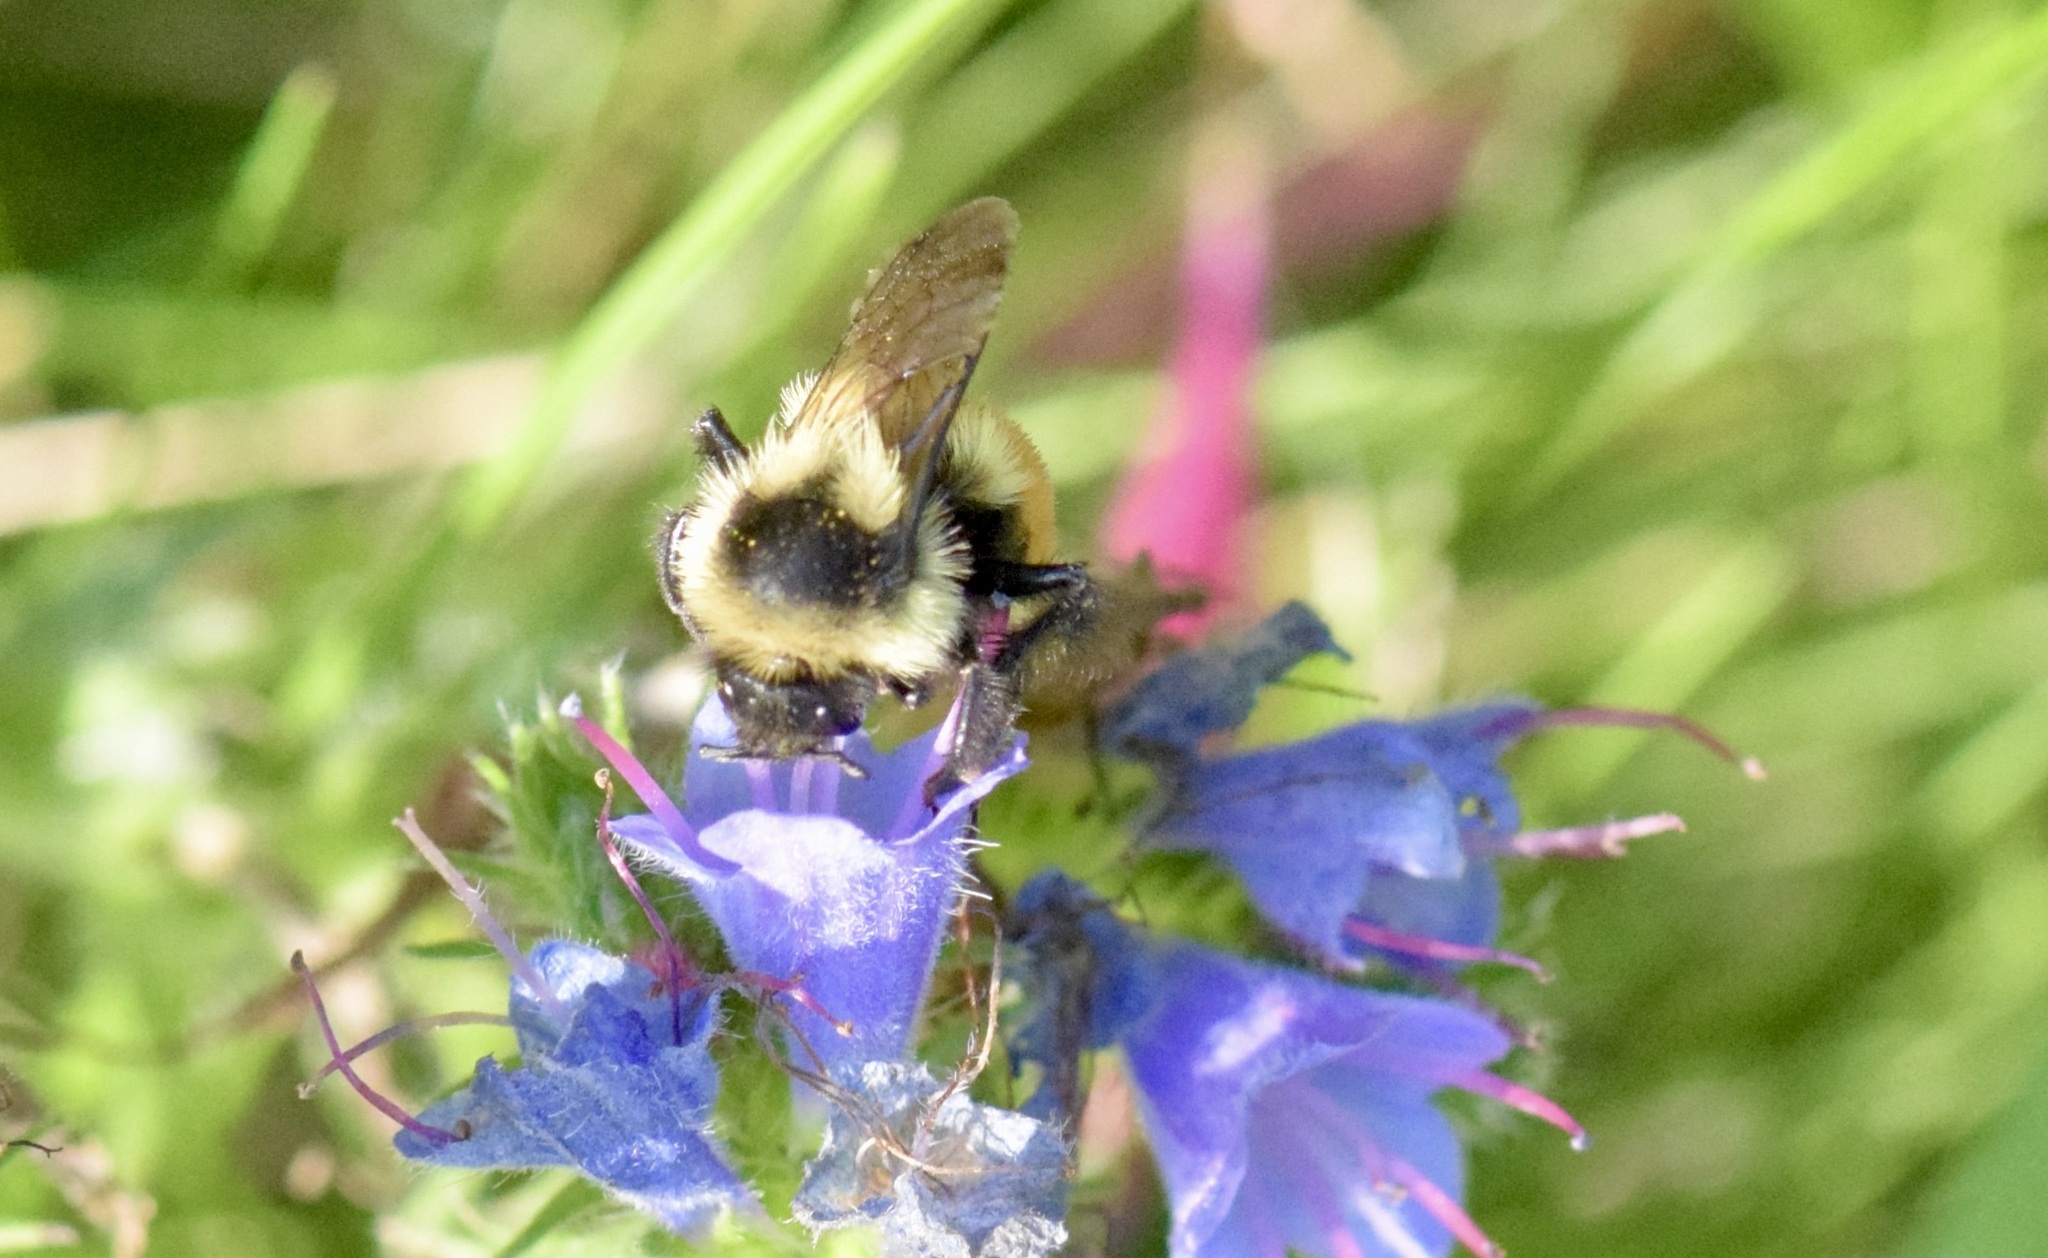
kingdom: Animalia
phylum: Arthropoda
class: Insecta
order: Hymenoptera
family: Apidae
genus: Bombus
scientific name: Bombus ternarius
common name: Tri-colored bumble bee
